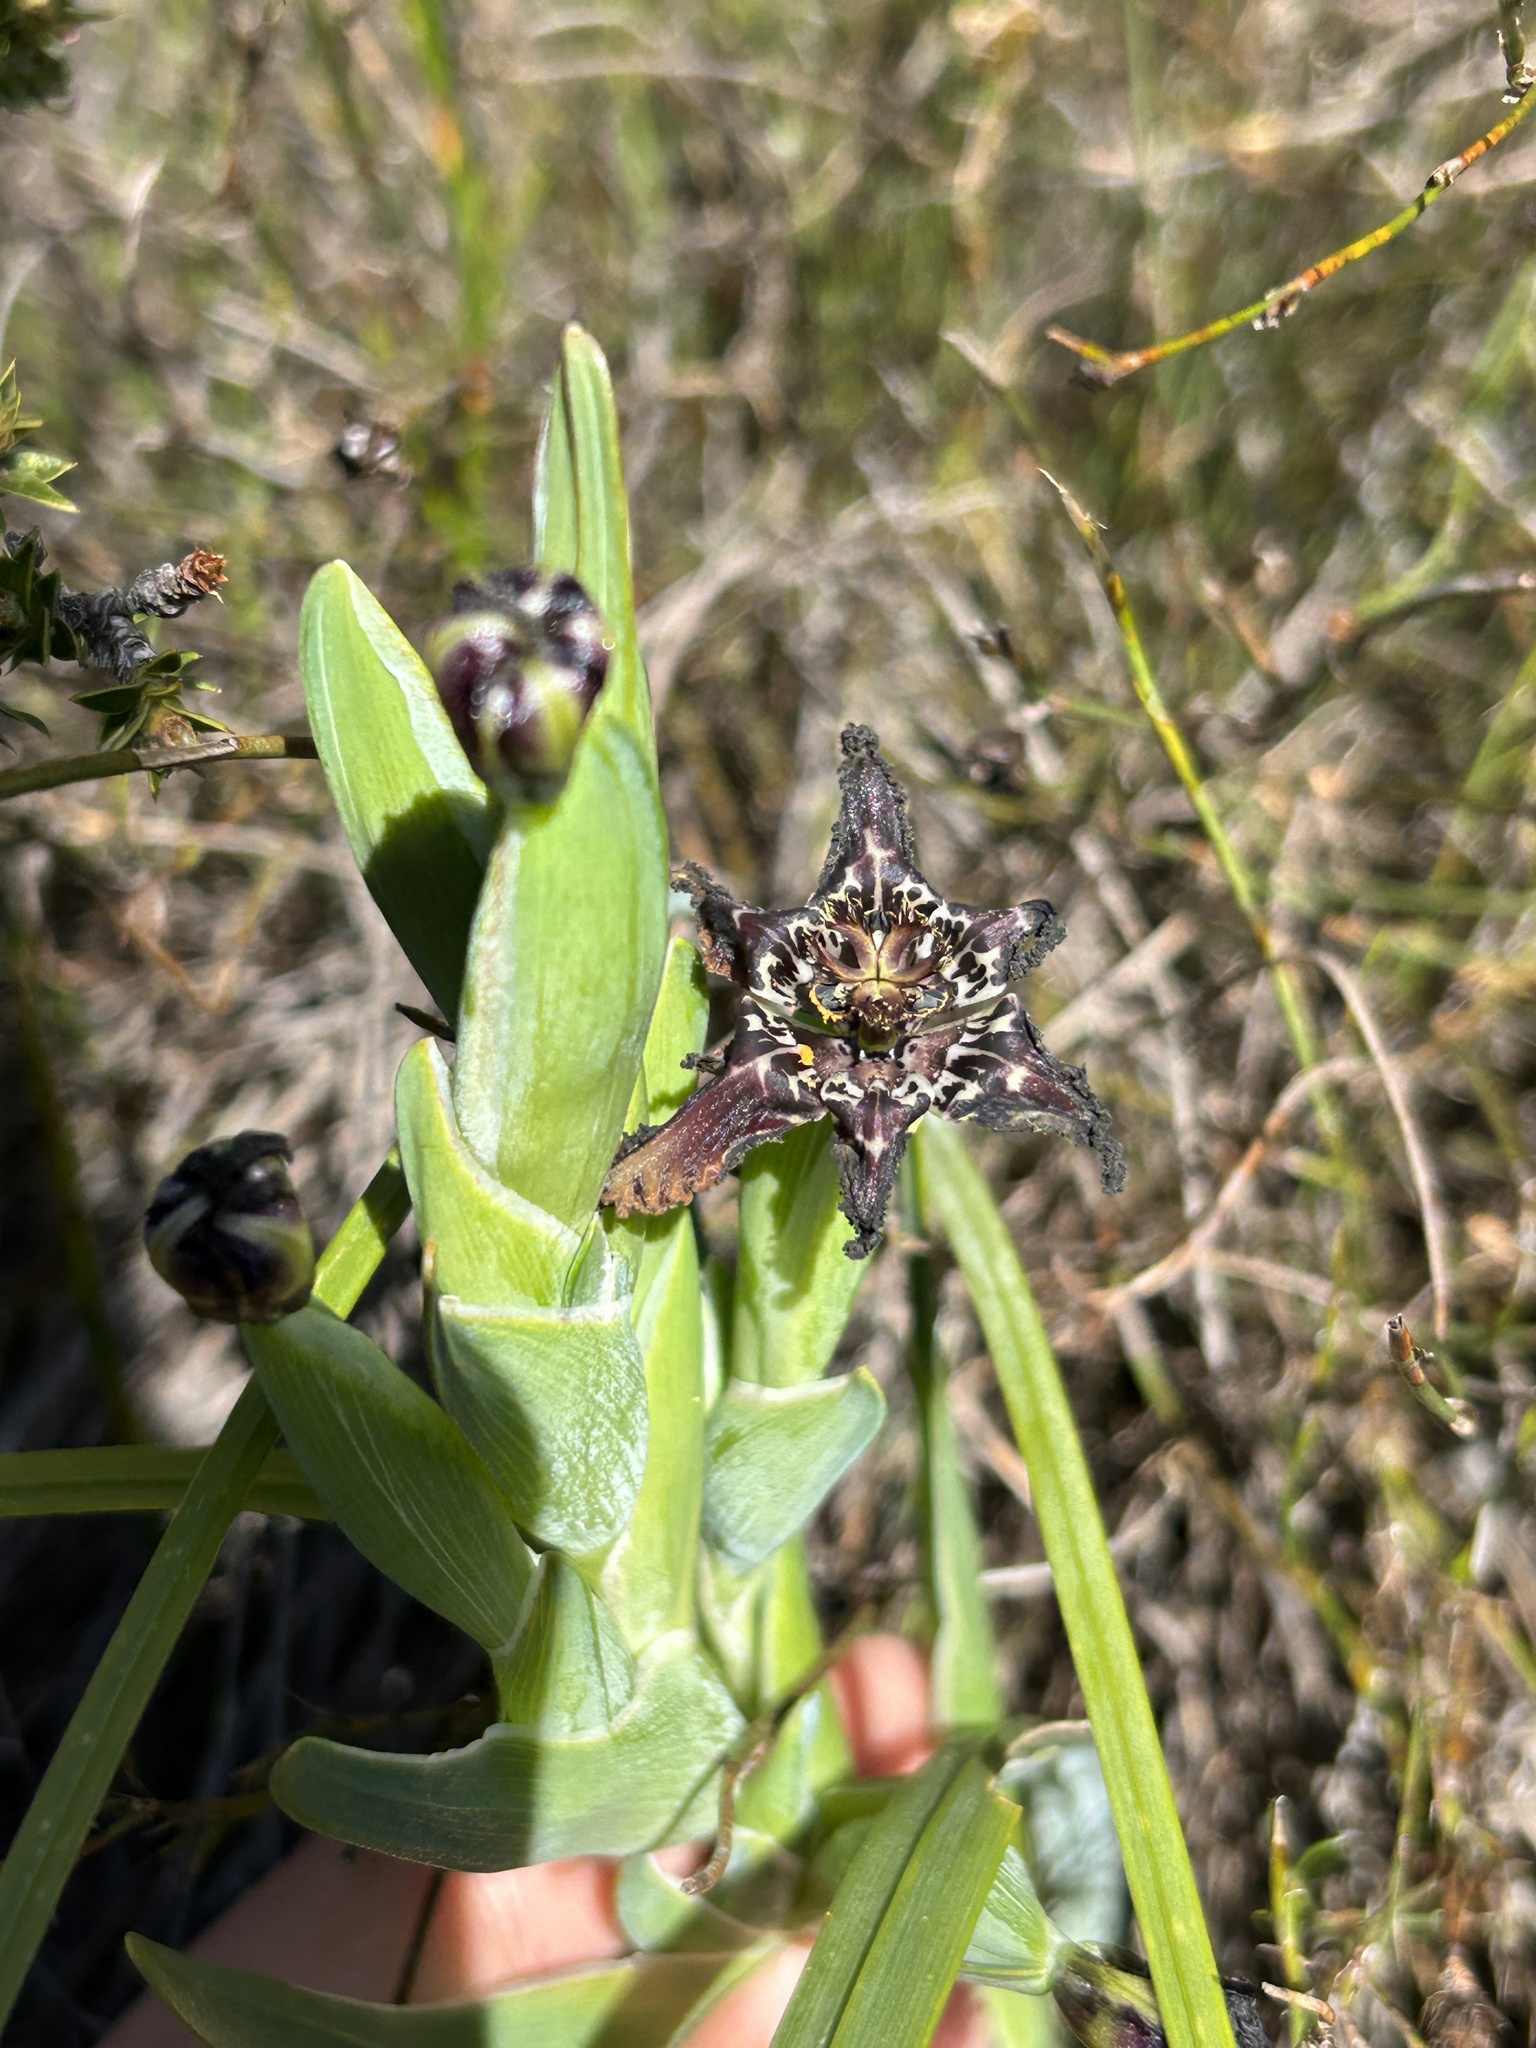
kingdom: Plantae
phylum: Tracheophyta
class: Liliopsida
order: Asparagales
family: Iridaceae
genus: Ferraria
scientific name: Ferraria crispa
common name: Black-flag
